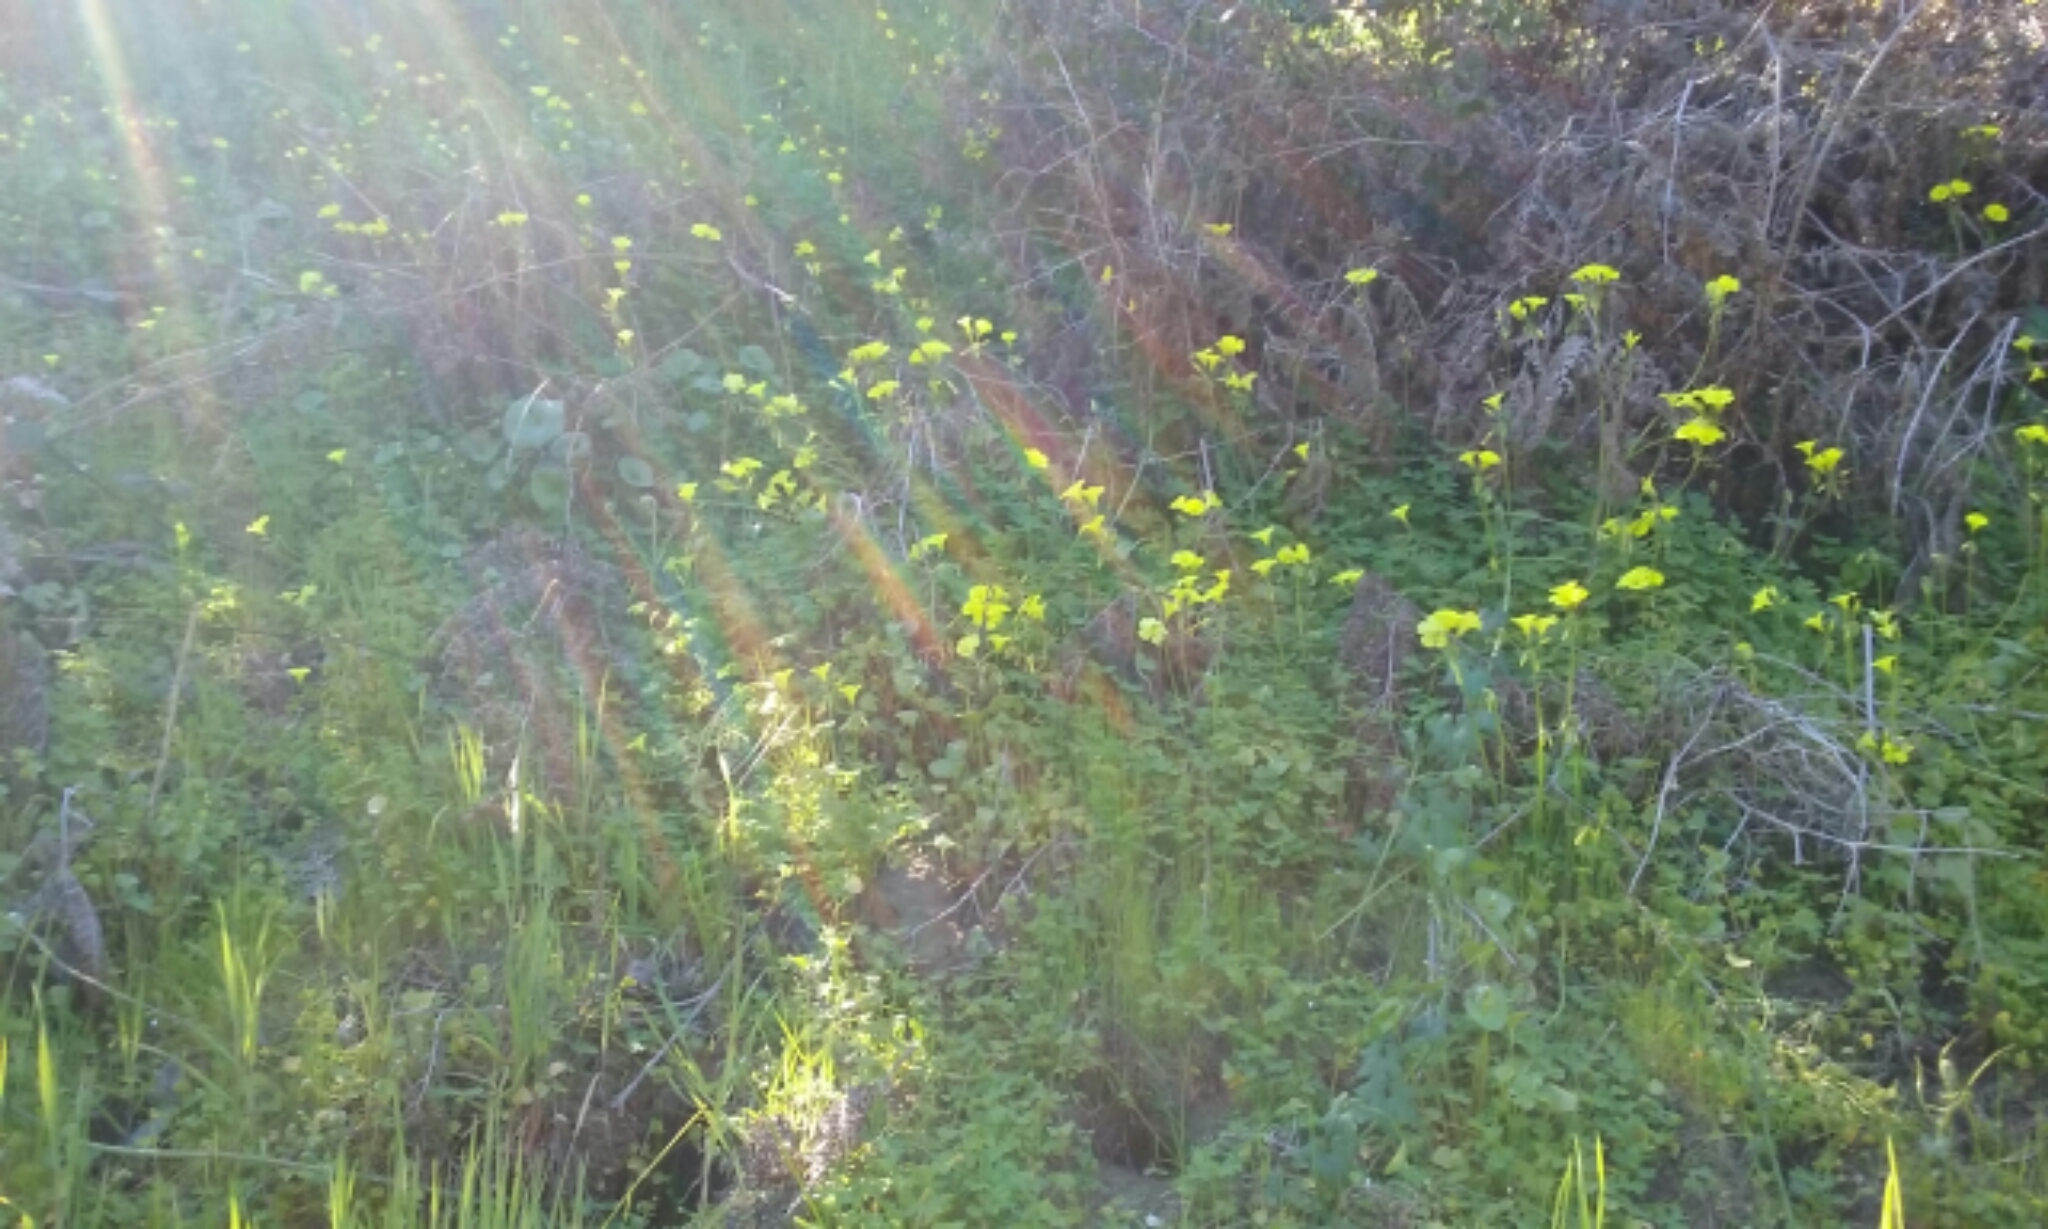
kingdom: Plantae
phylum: Tracheophyta
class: Magnoliopsida
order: Oxalidales
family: Oxalidaceae
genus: Oxalis
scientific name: Oxalis pes-caprae
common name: Bermuda-buttercup
